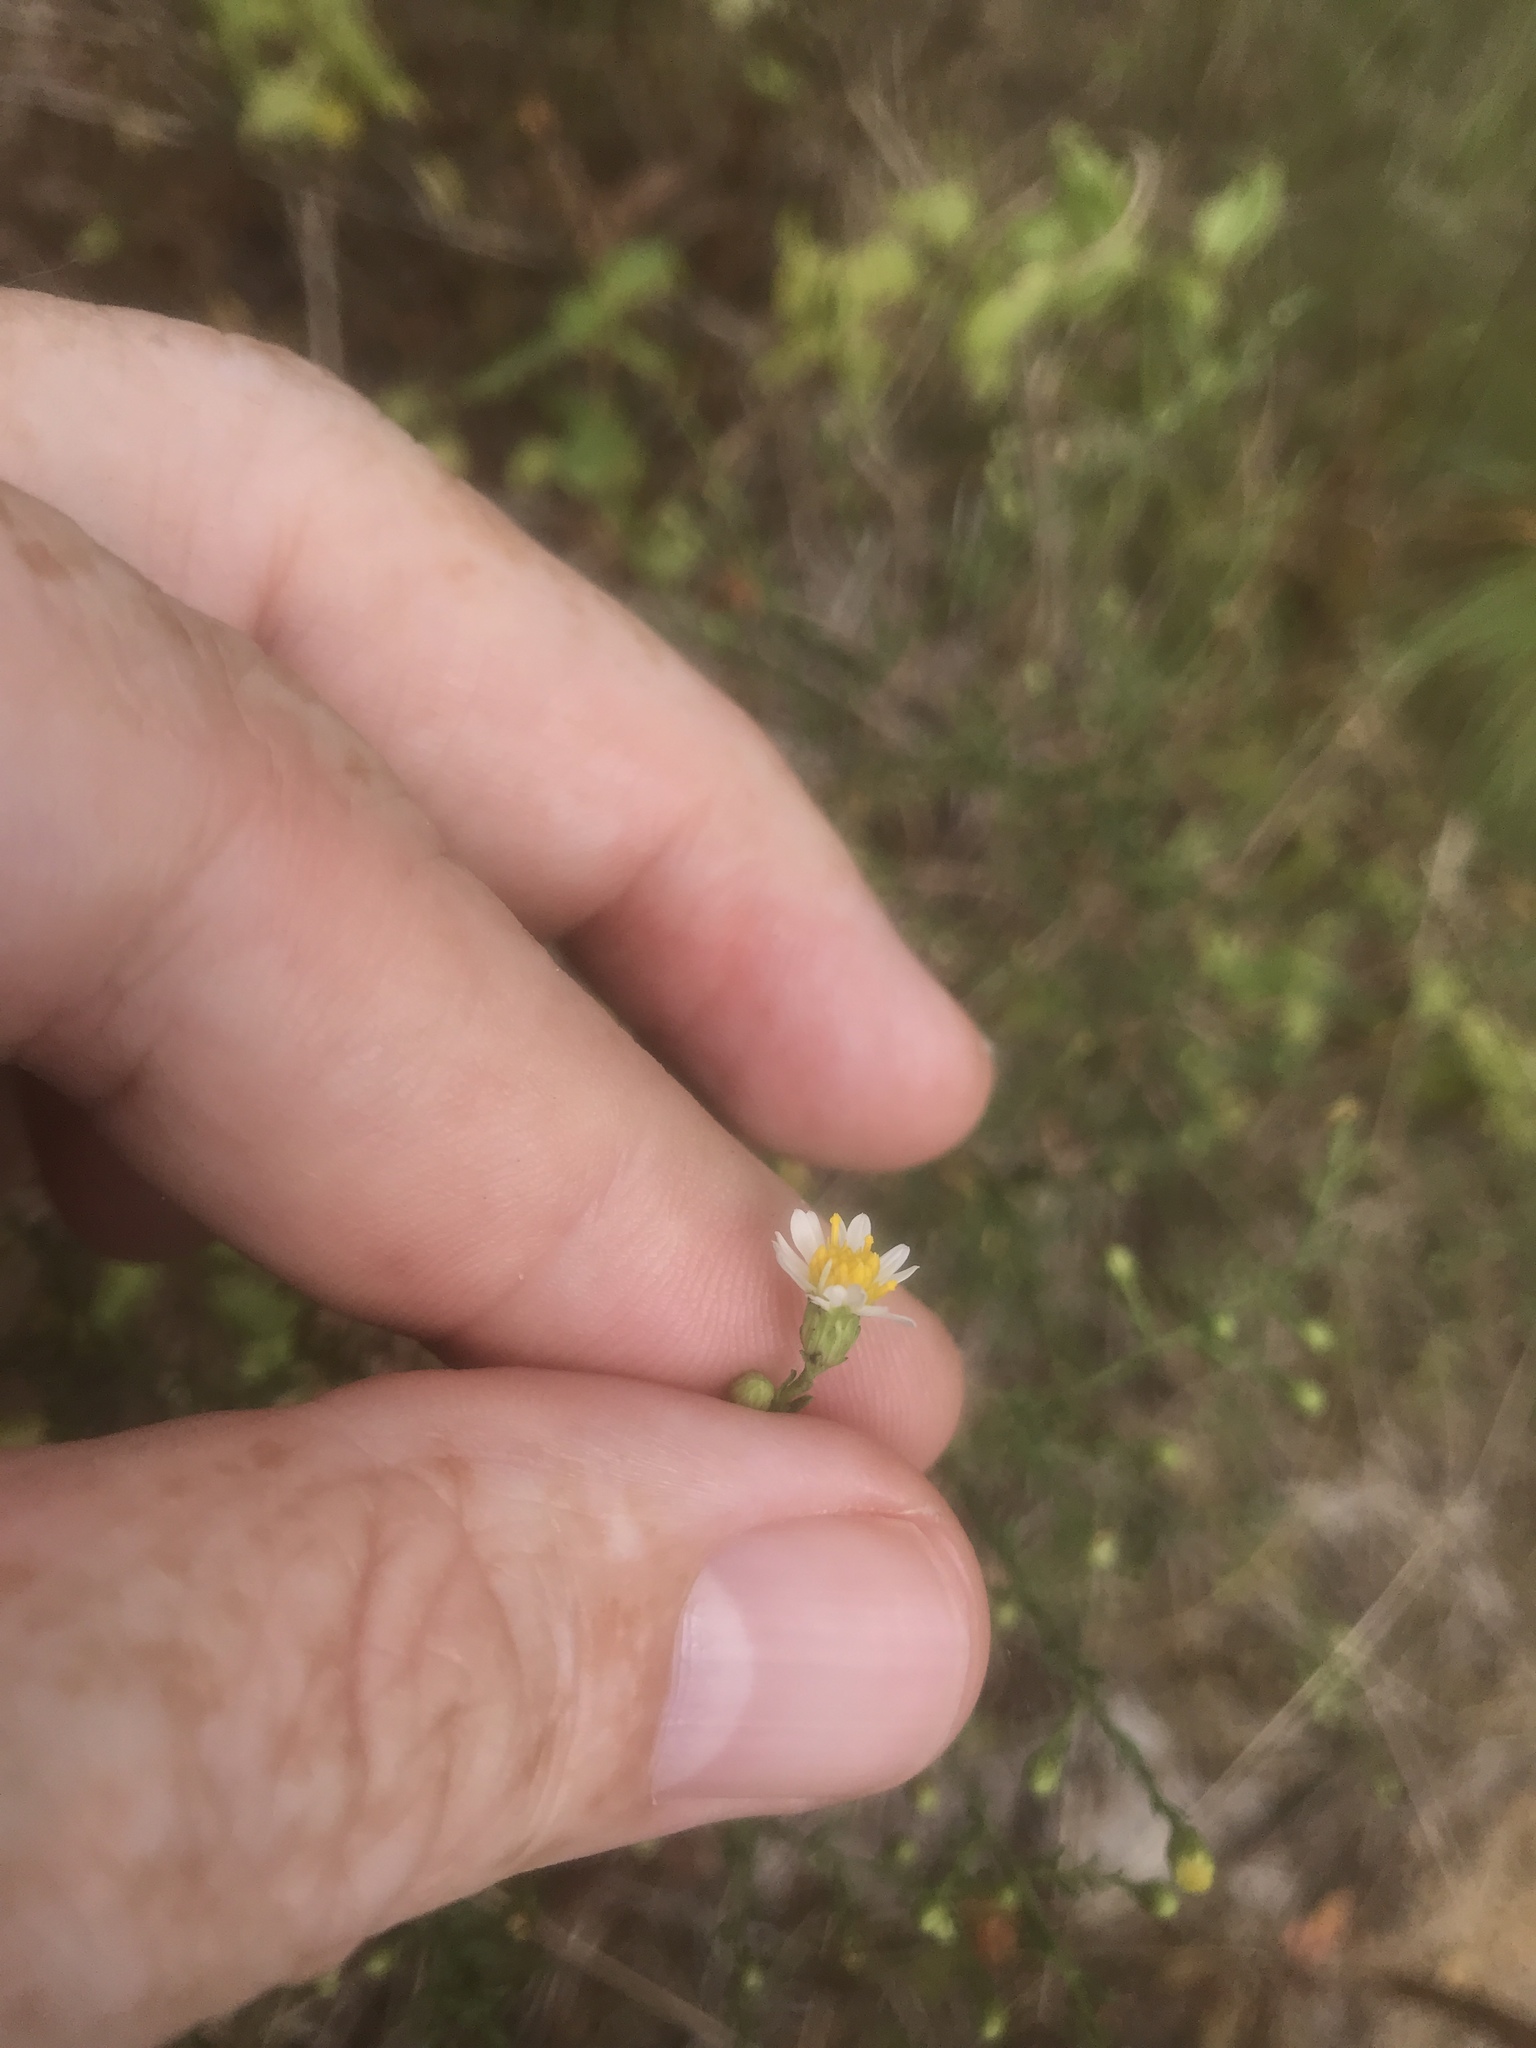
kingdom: Plantae
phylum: Tracheophyta
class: Magnoliopsida
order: Asterales
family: Asteraceae
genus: Symphyotrichum
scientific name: Symphyotrichum dumosum
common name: Bushy aster
